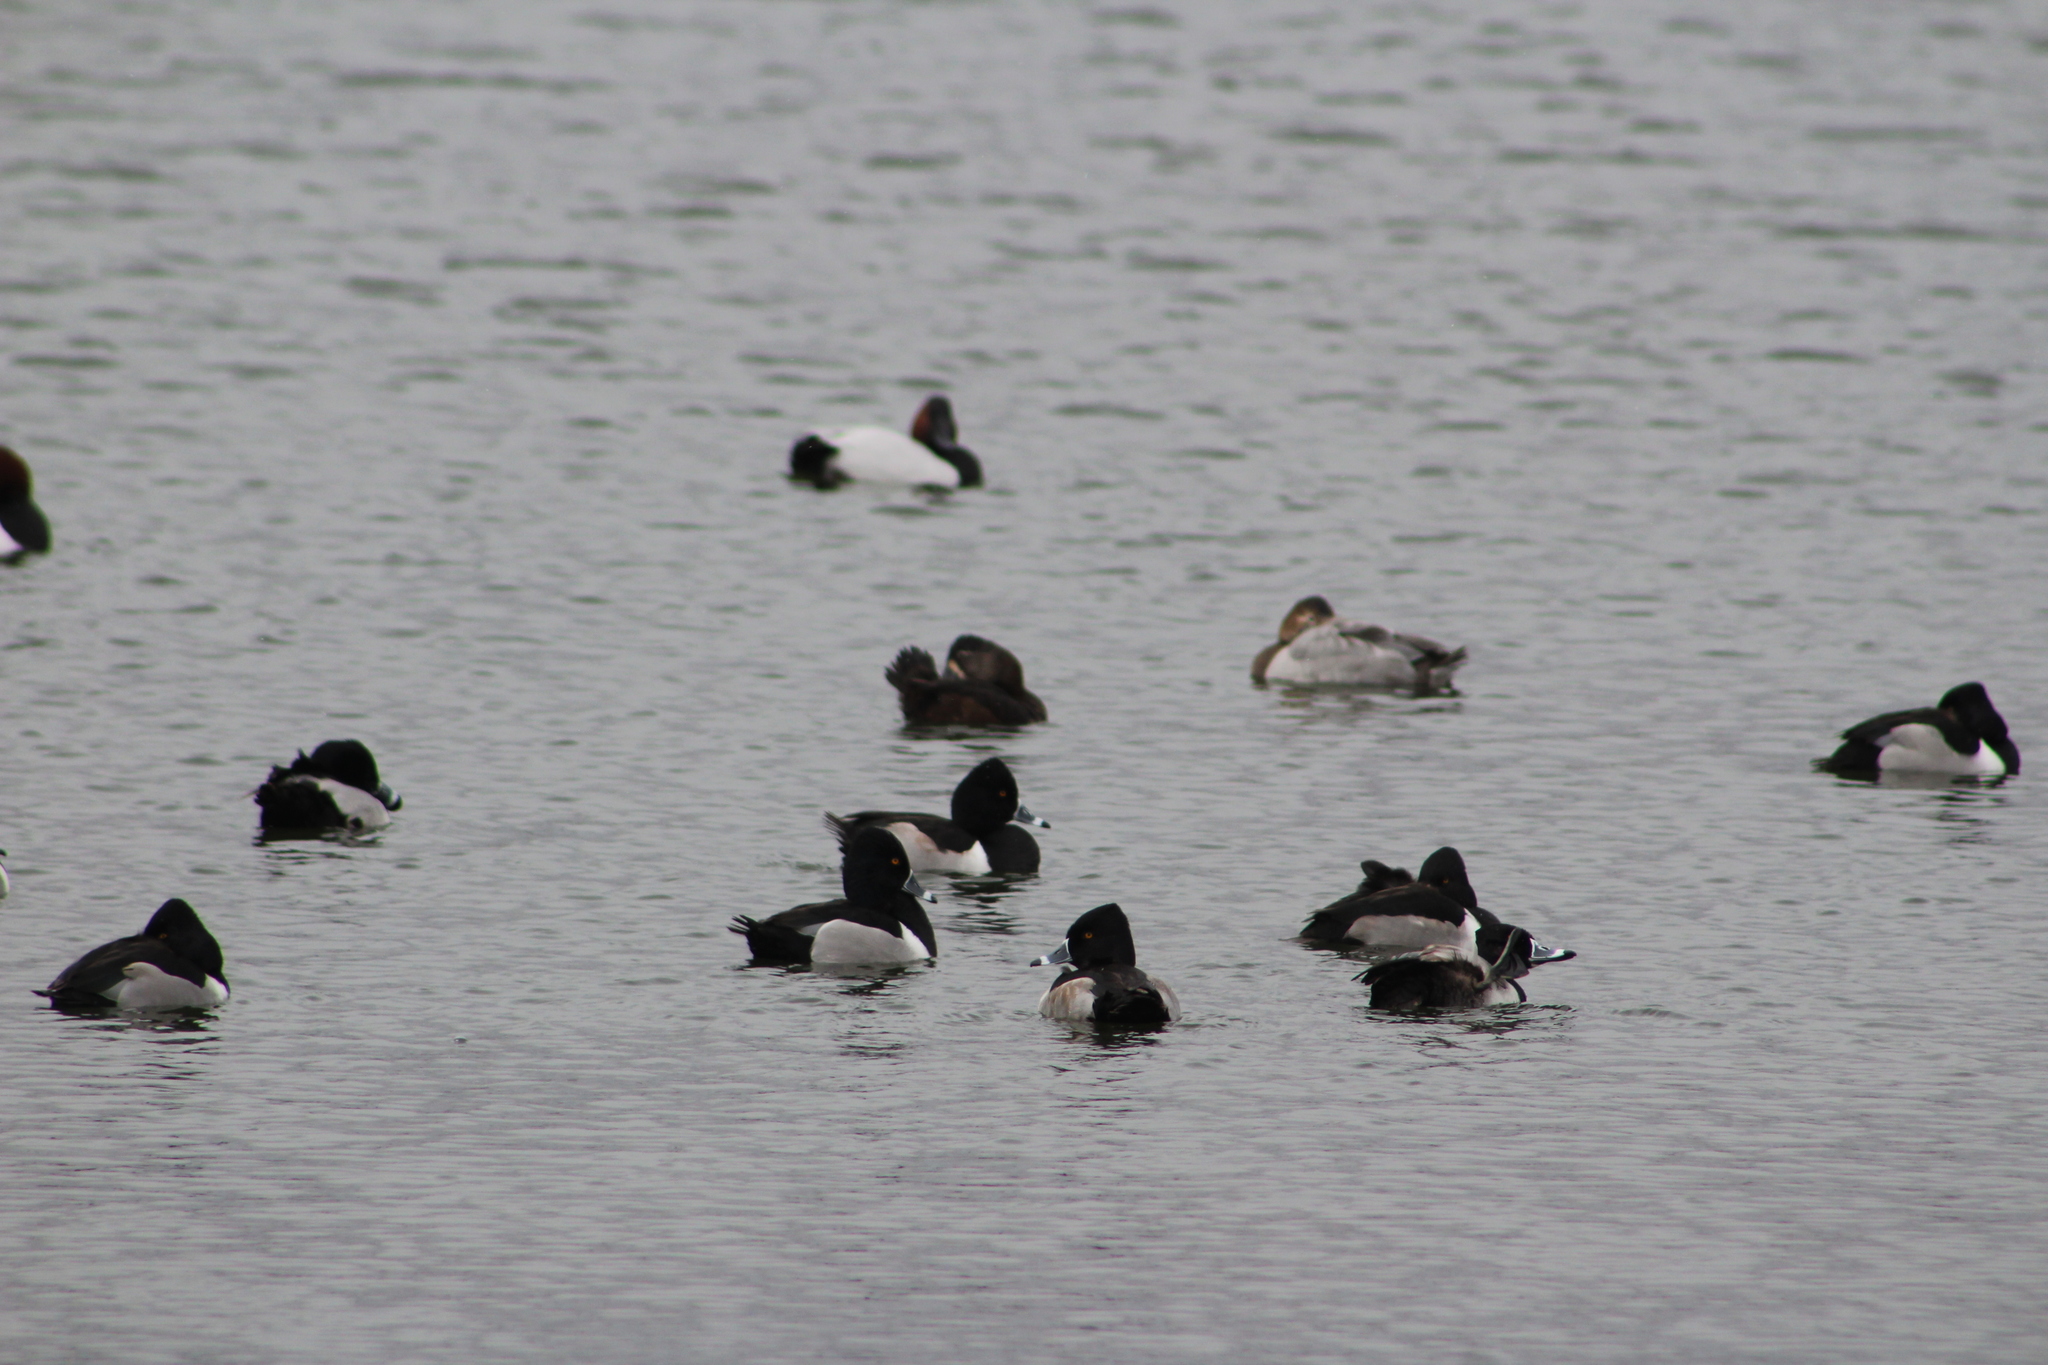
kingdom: Animalia
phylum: Chordata
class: Aves
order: Anseriformes
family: Anatidae
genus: Aythya
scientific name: Aythya collaris
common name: Ring-necked duck
